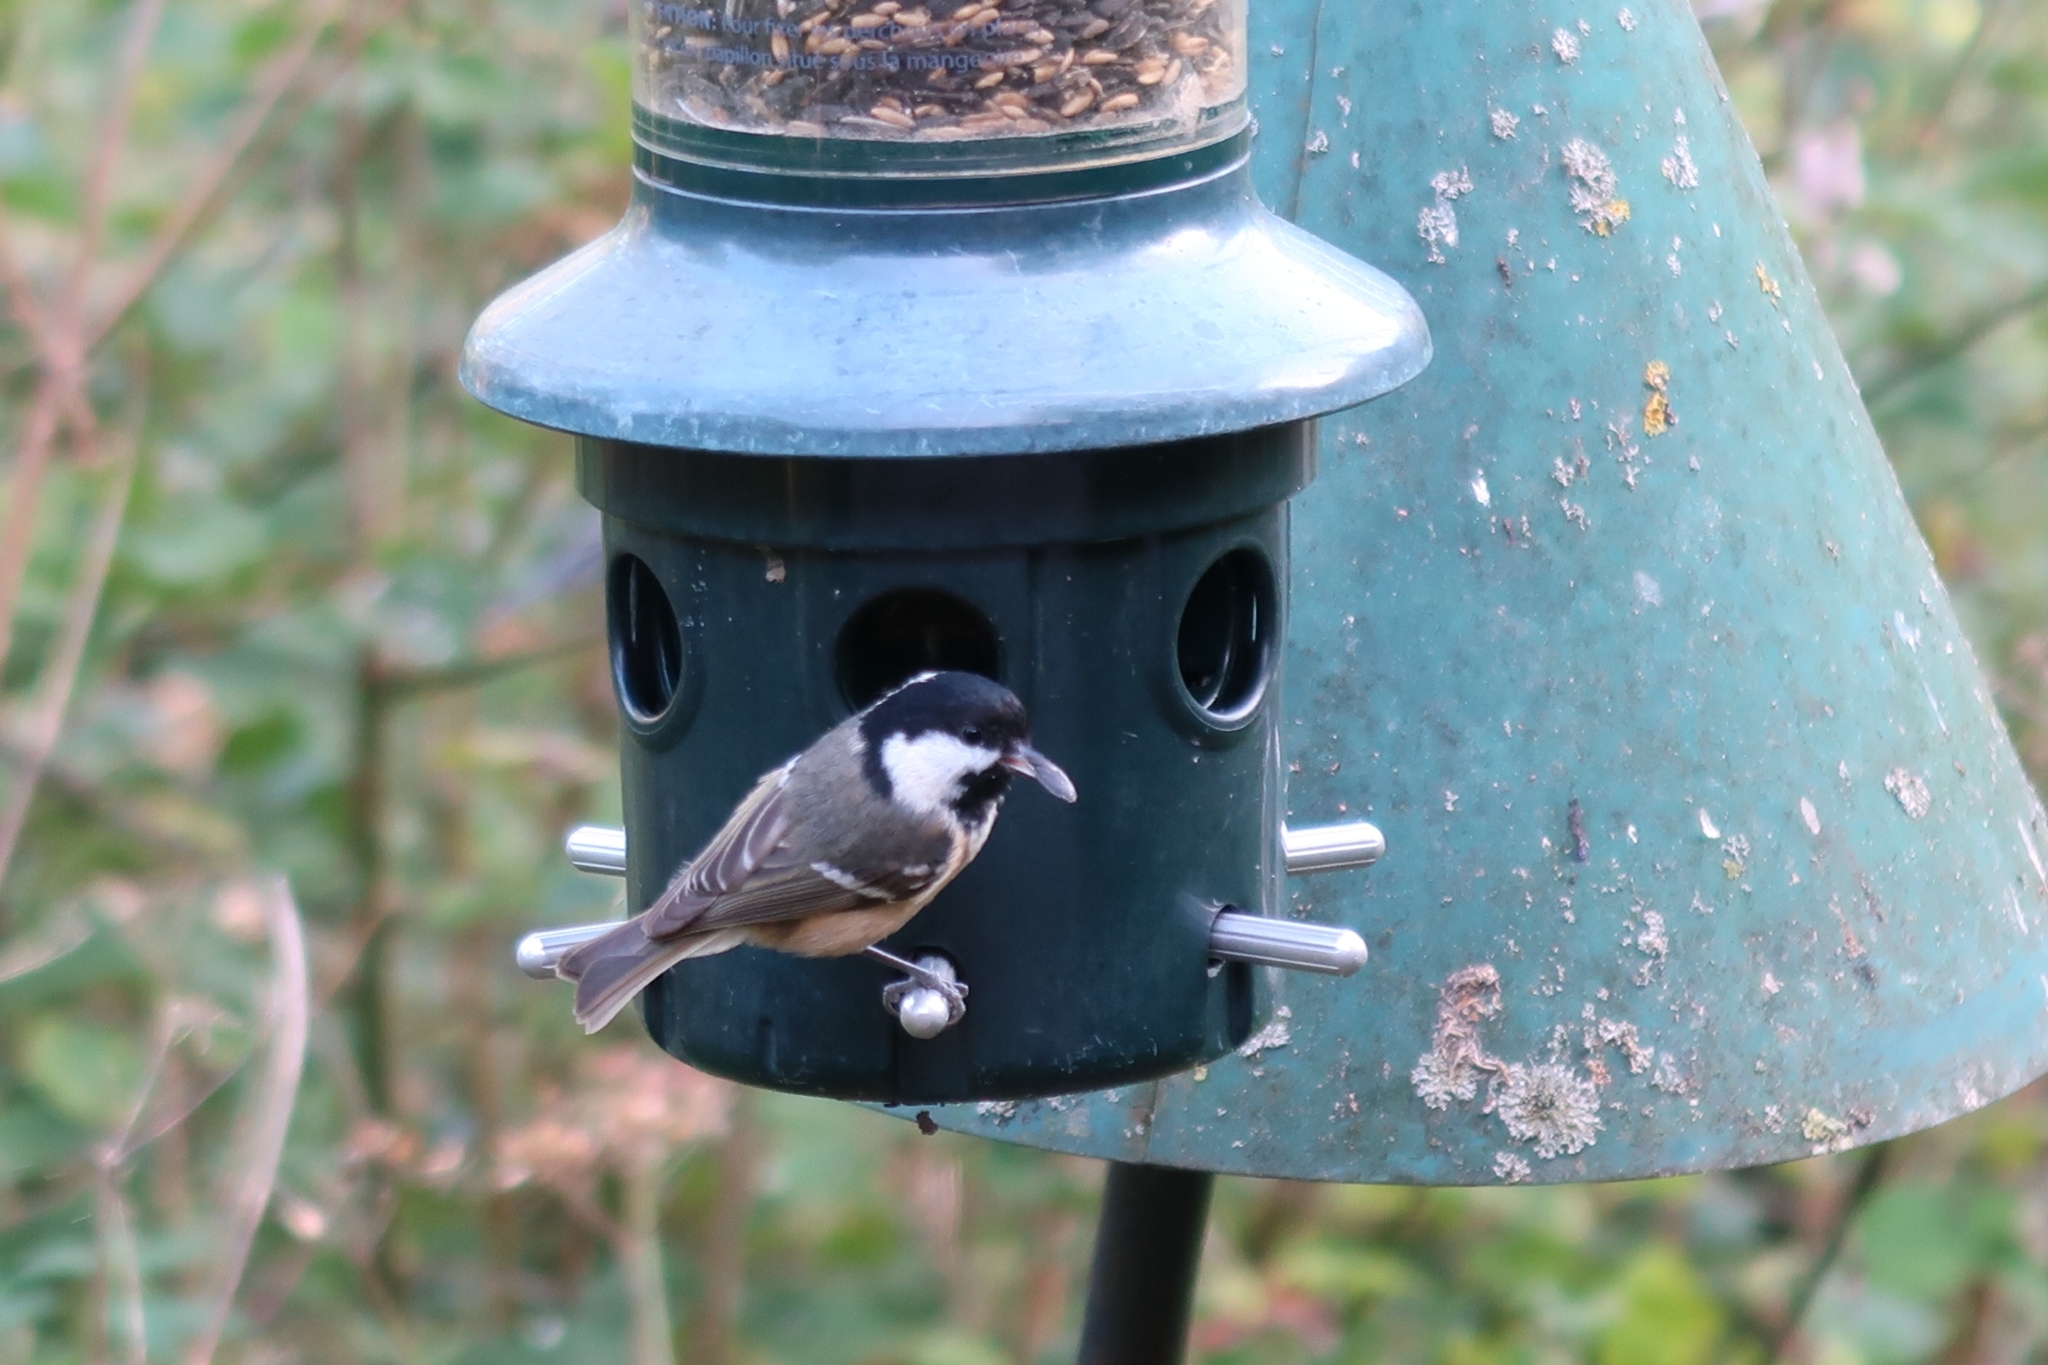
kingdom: Animalia
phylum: Chordata
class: Aves
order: Passeriformes
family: Paridae
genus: Periparus
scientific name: Periparus ater
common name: Coal tit
